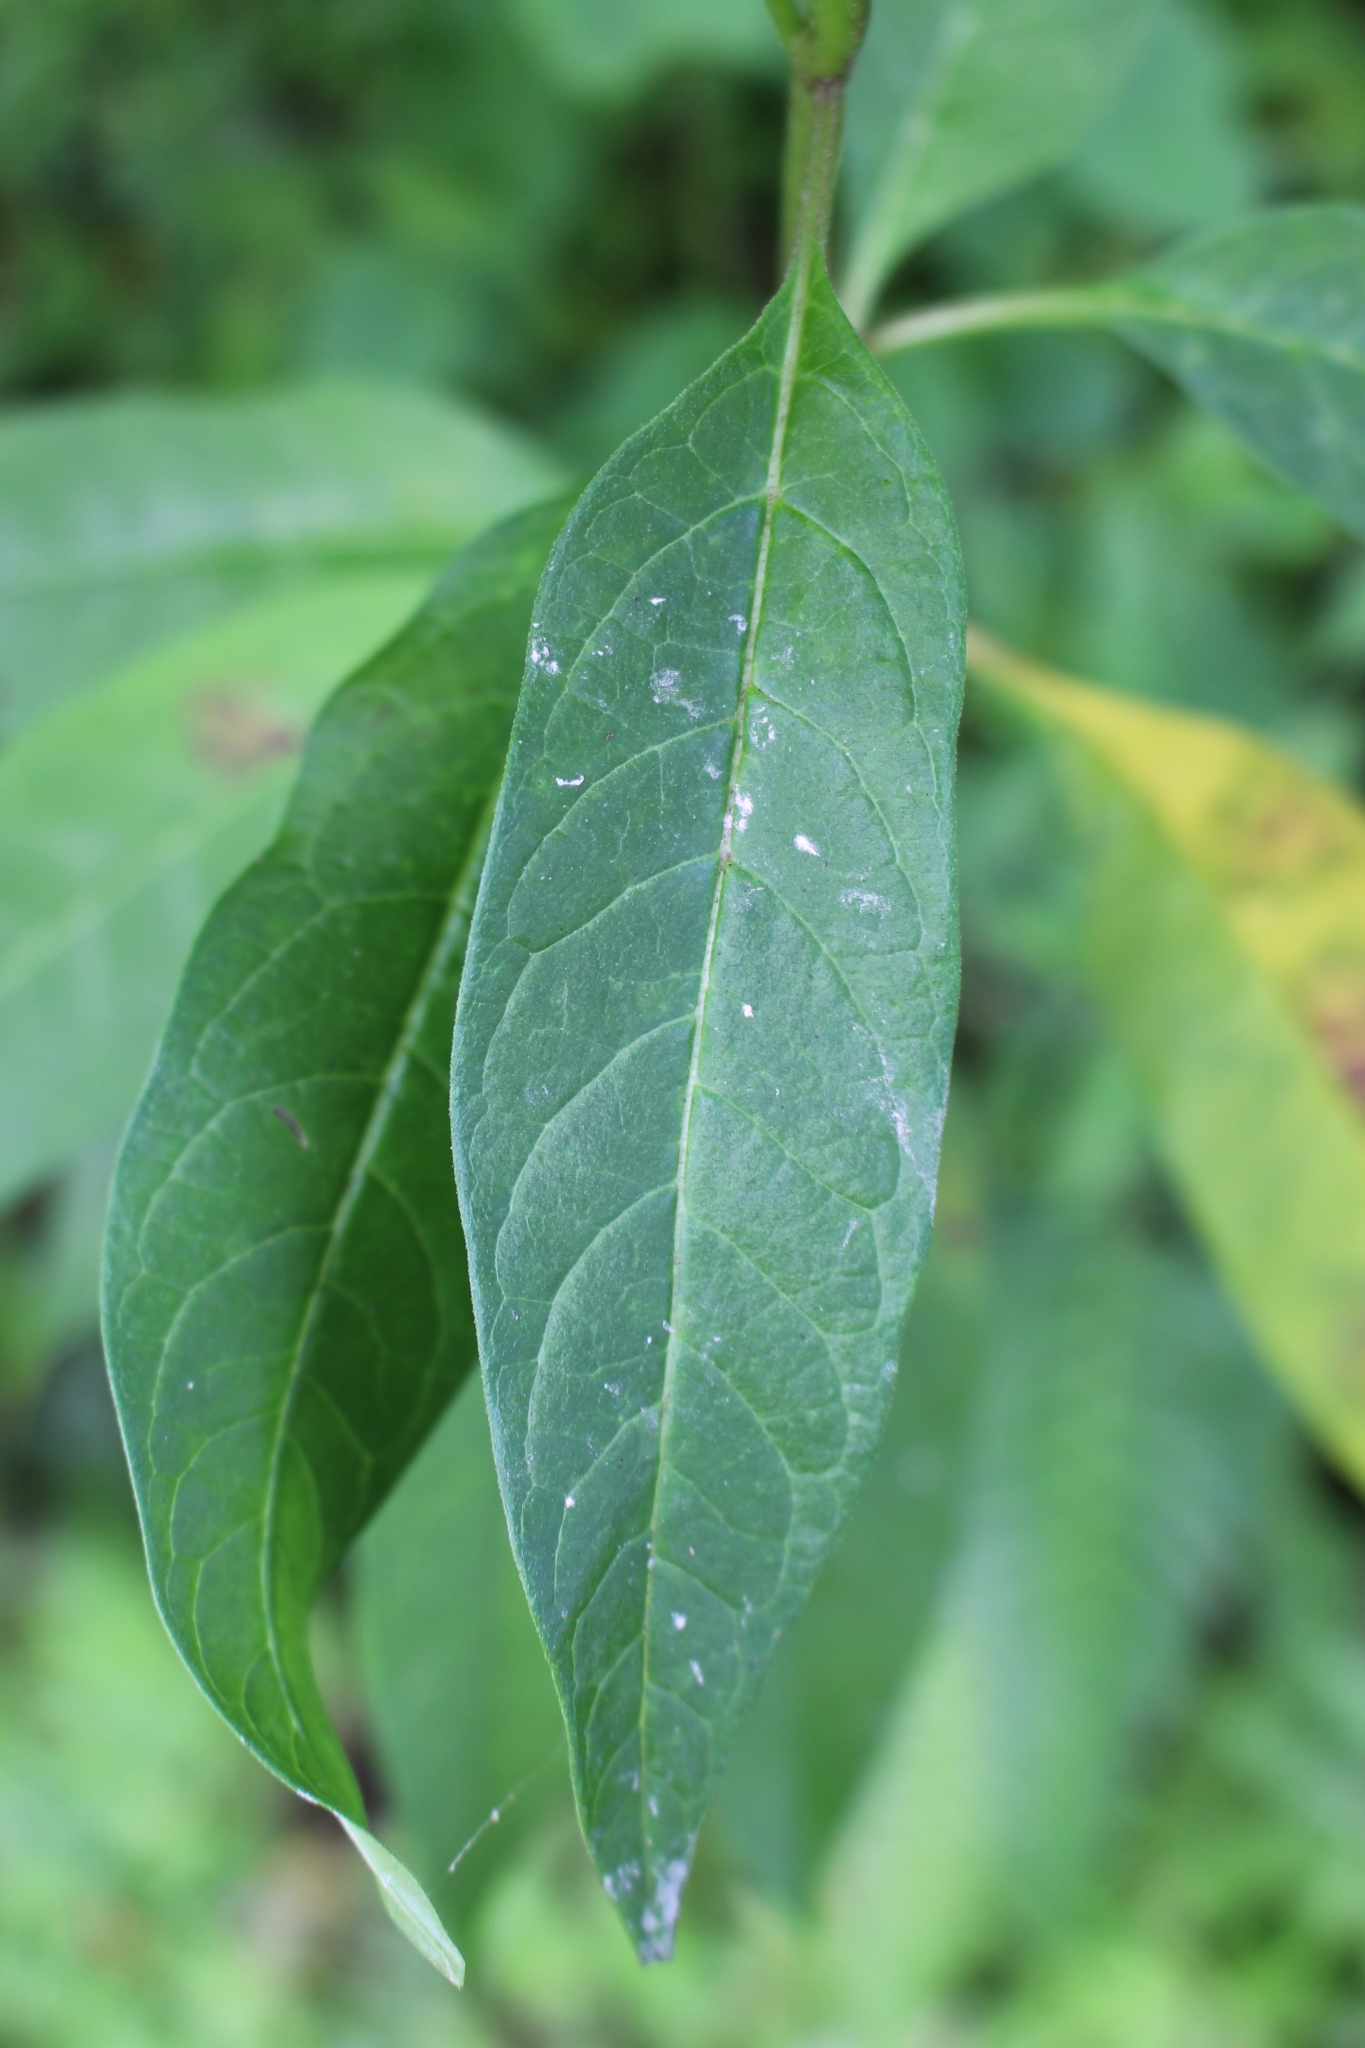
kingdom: Plantae
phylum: Tracheophyta
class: Magnoliopsida
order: Gentianales
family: Apocynaceae
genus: Asclepias
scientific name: Asclepias curassavica
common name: Bloodflower
